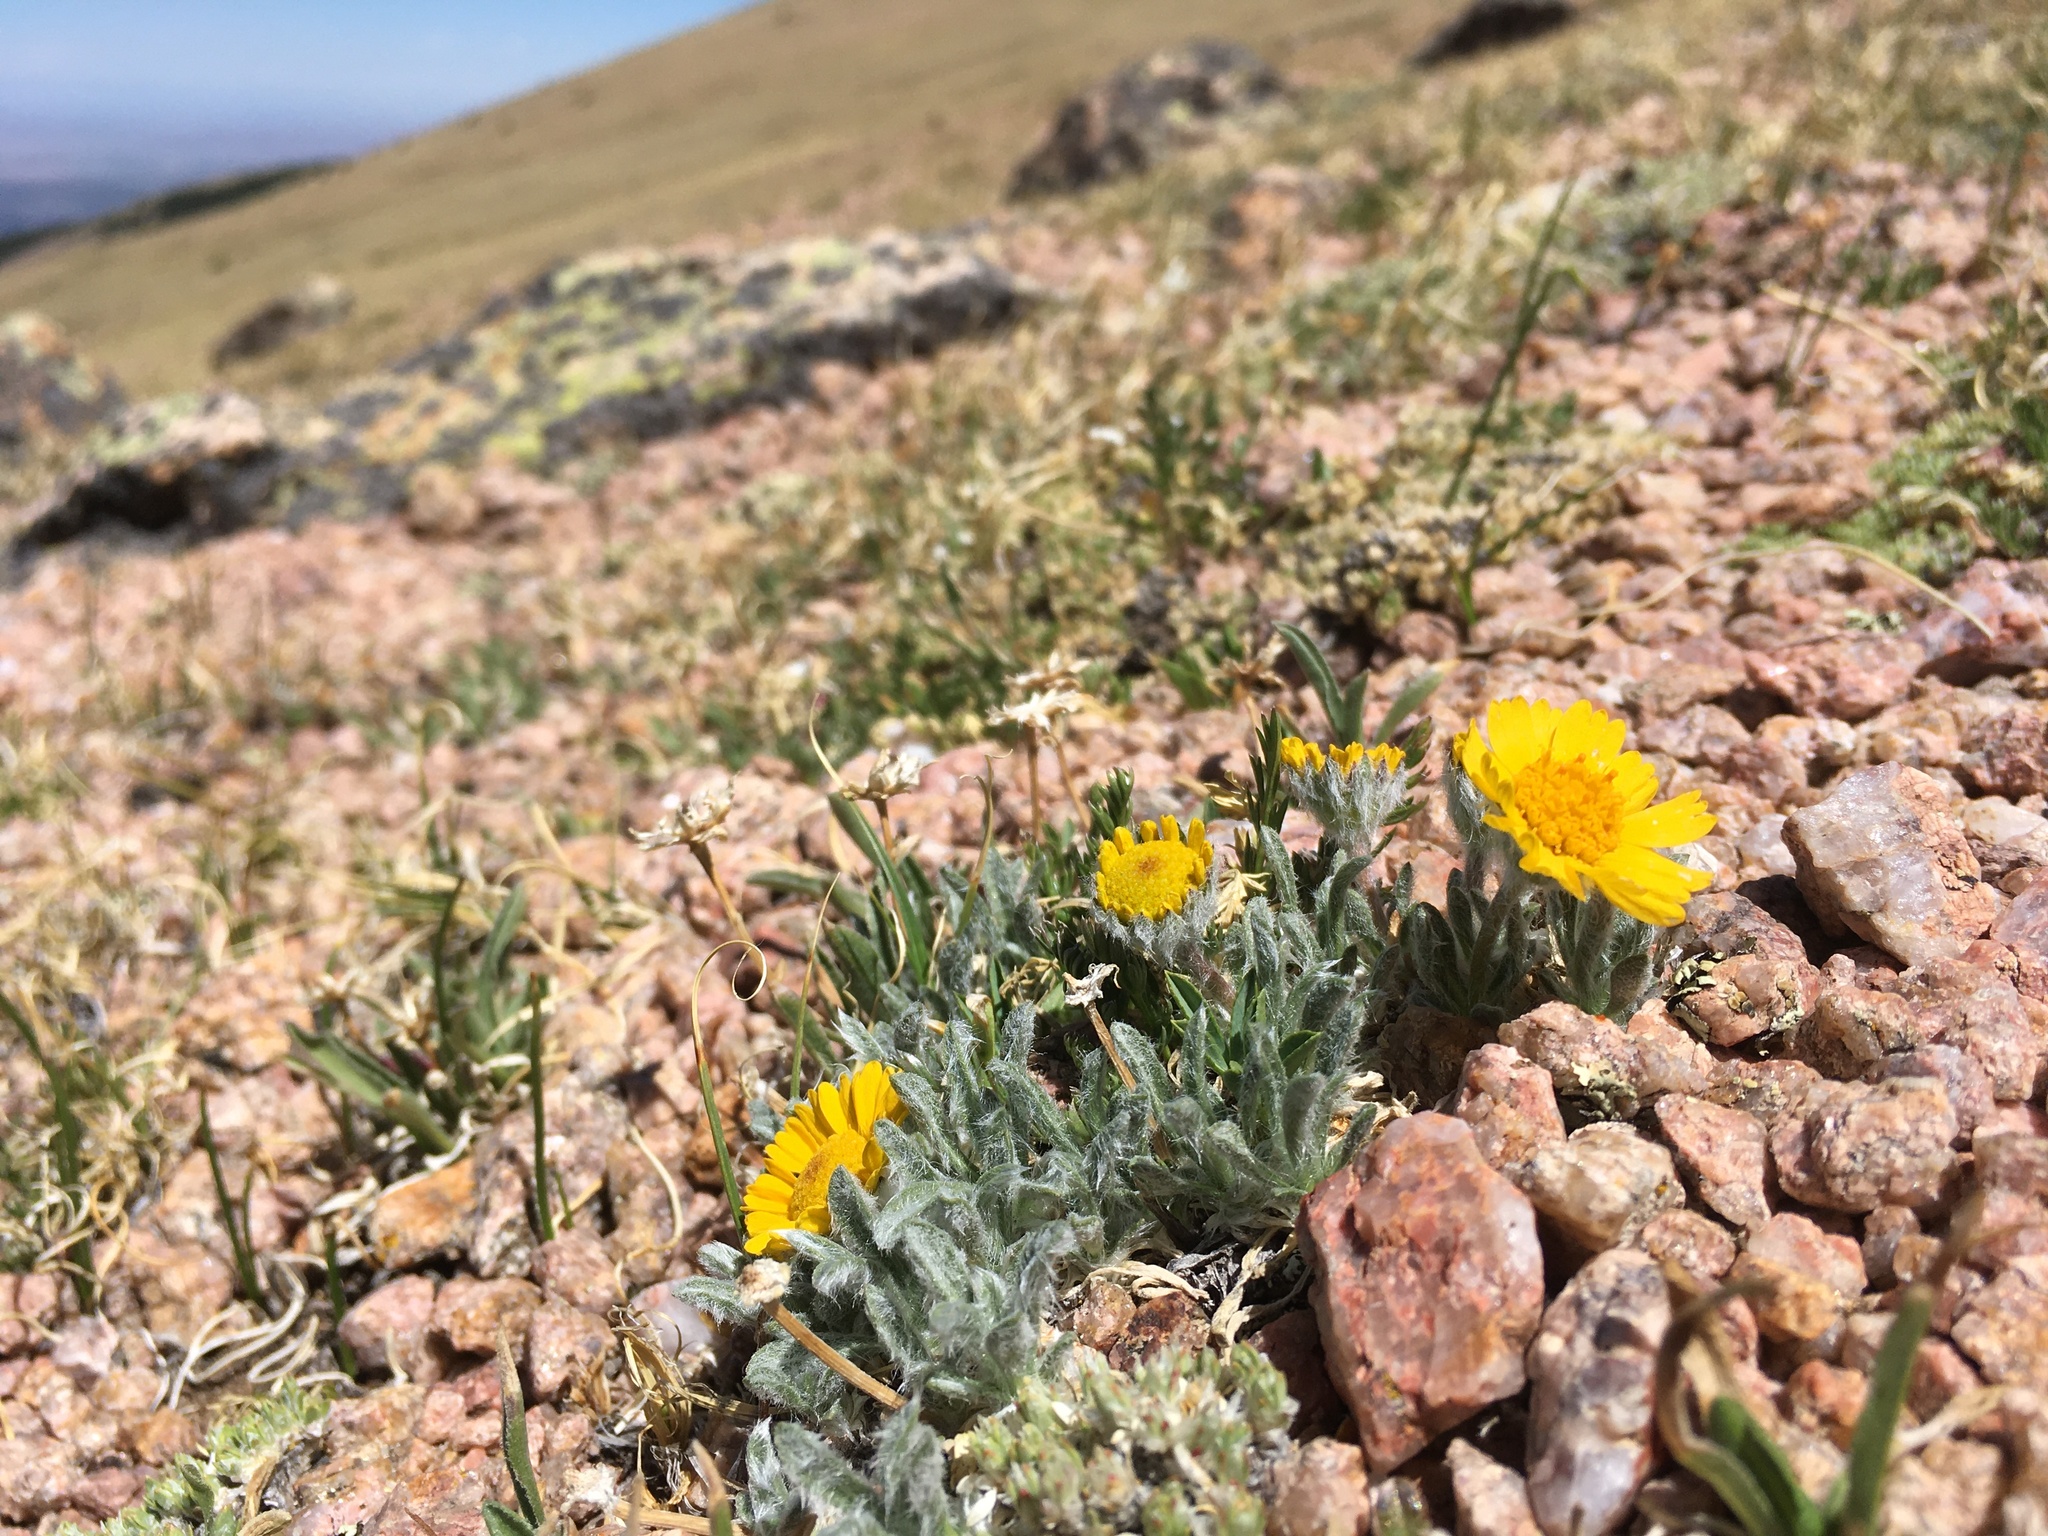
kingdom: Plantae
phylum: Tracheophyta
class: Magnoliopsida
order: Asterales
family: Asteraceae
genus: Tetraneuris
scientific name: Tetraneuris acaulis
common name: Butte marigold
